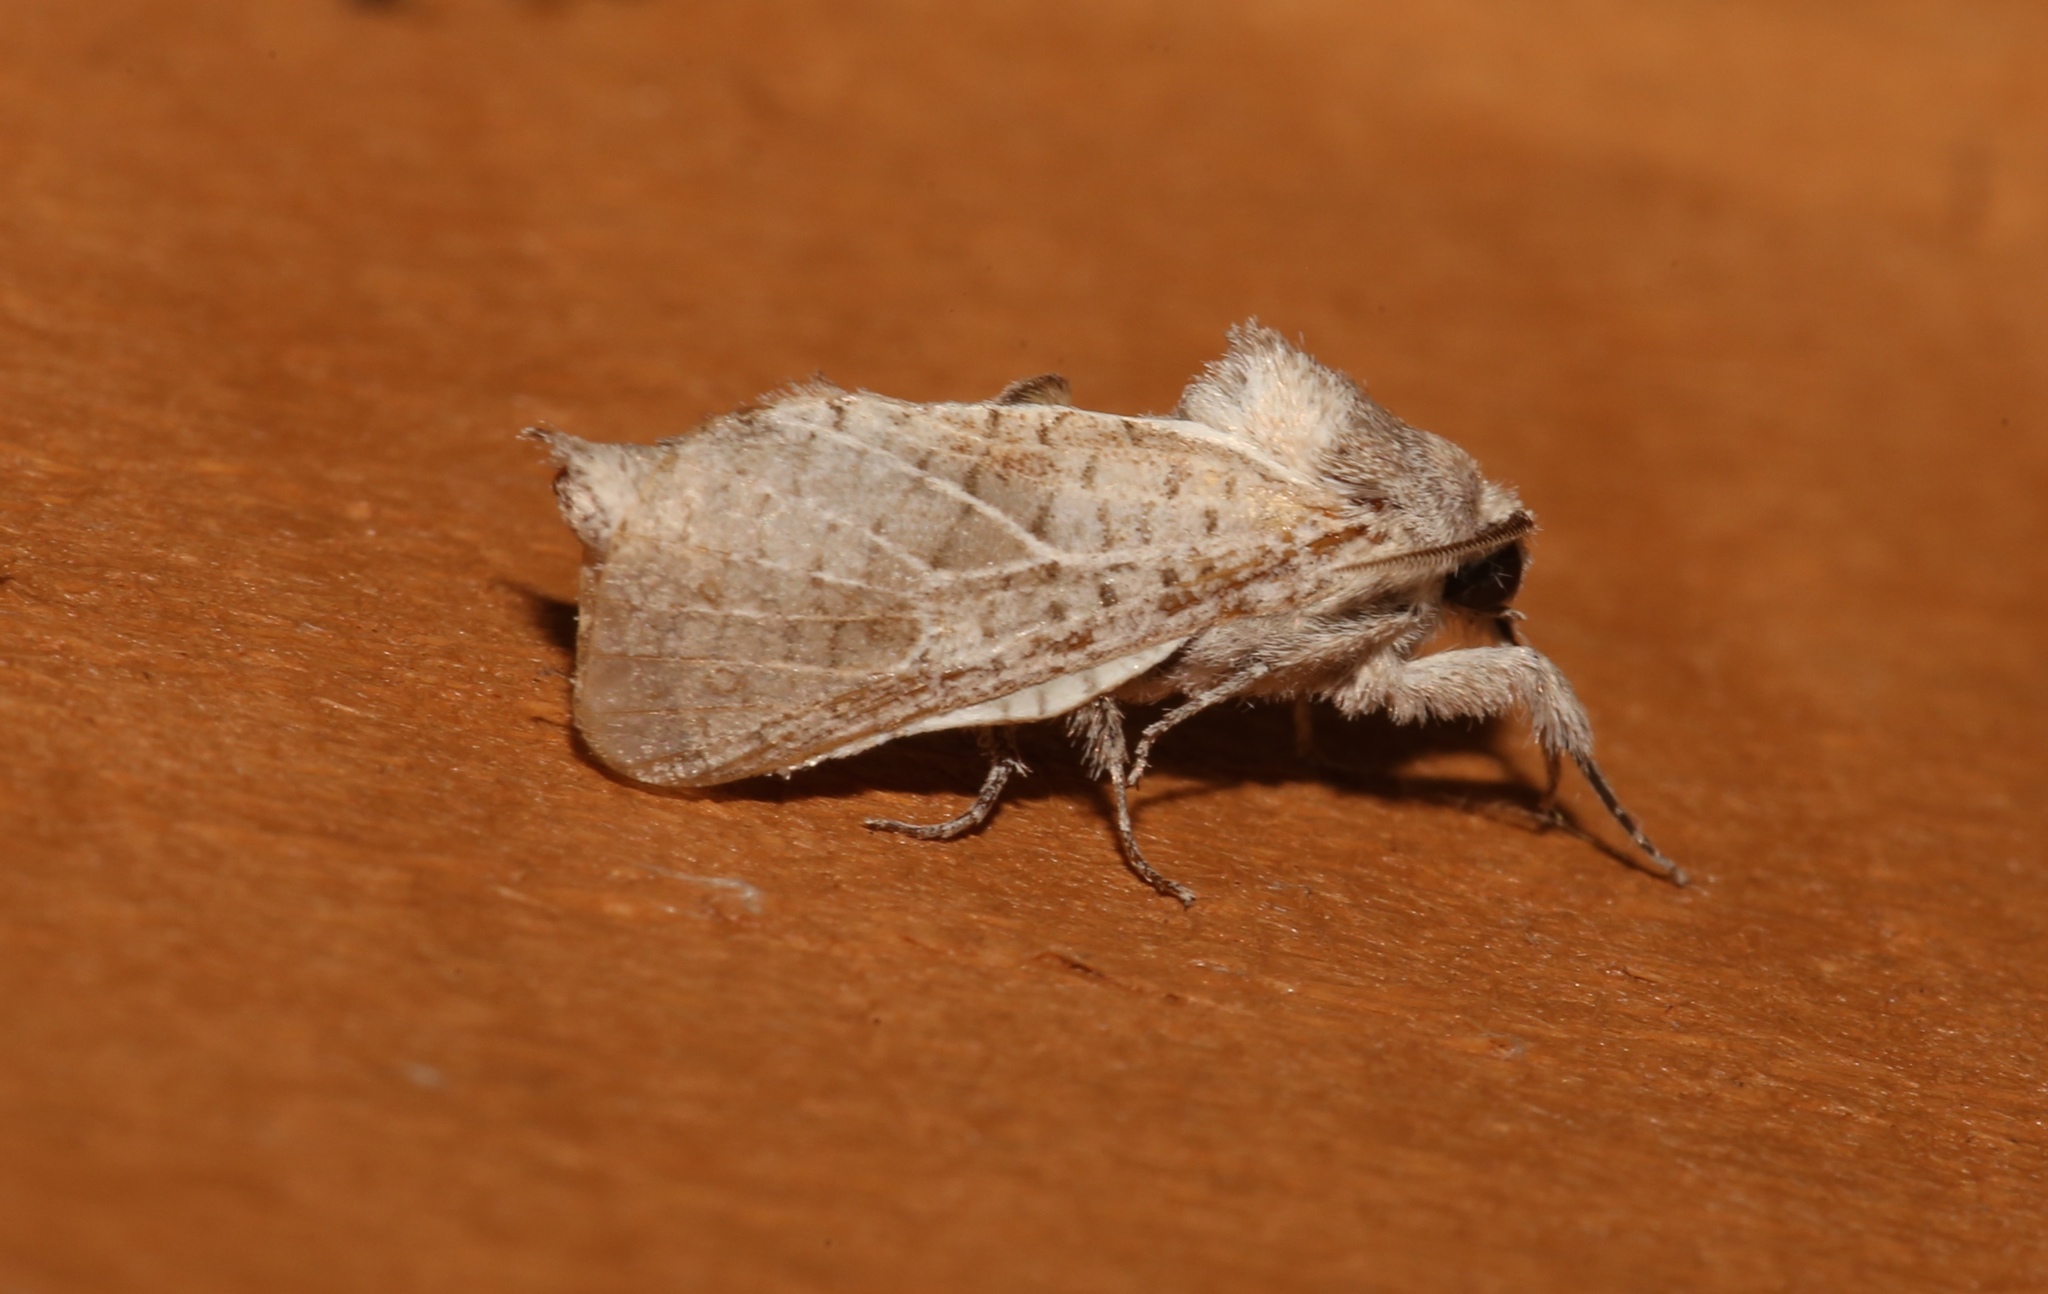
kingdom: Animalia
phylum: Arthropoda
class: Insecta
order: Lepidoptera
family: Cossidae
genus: Givira
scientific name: Givira anna
